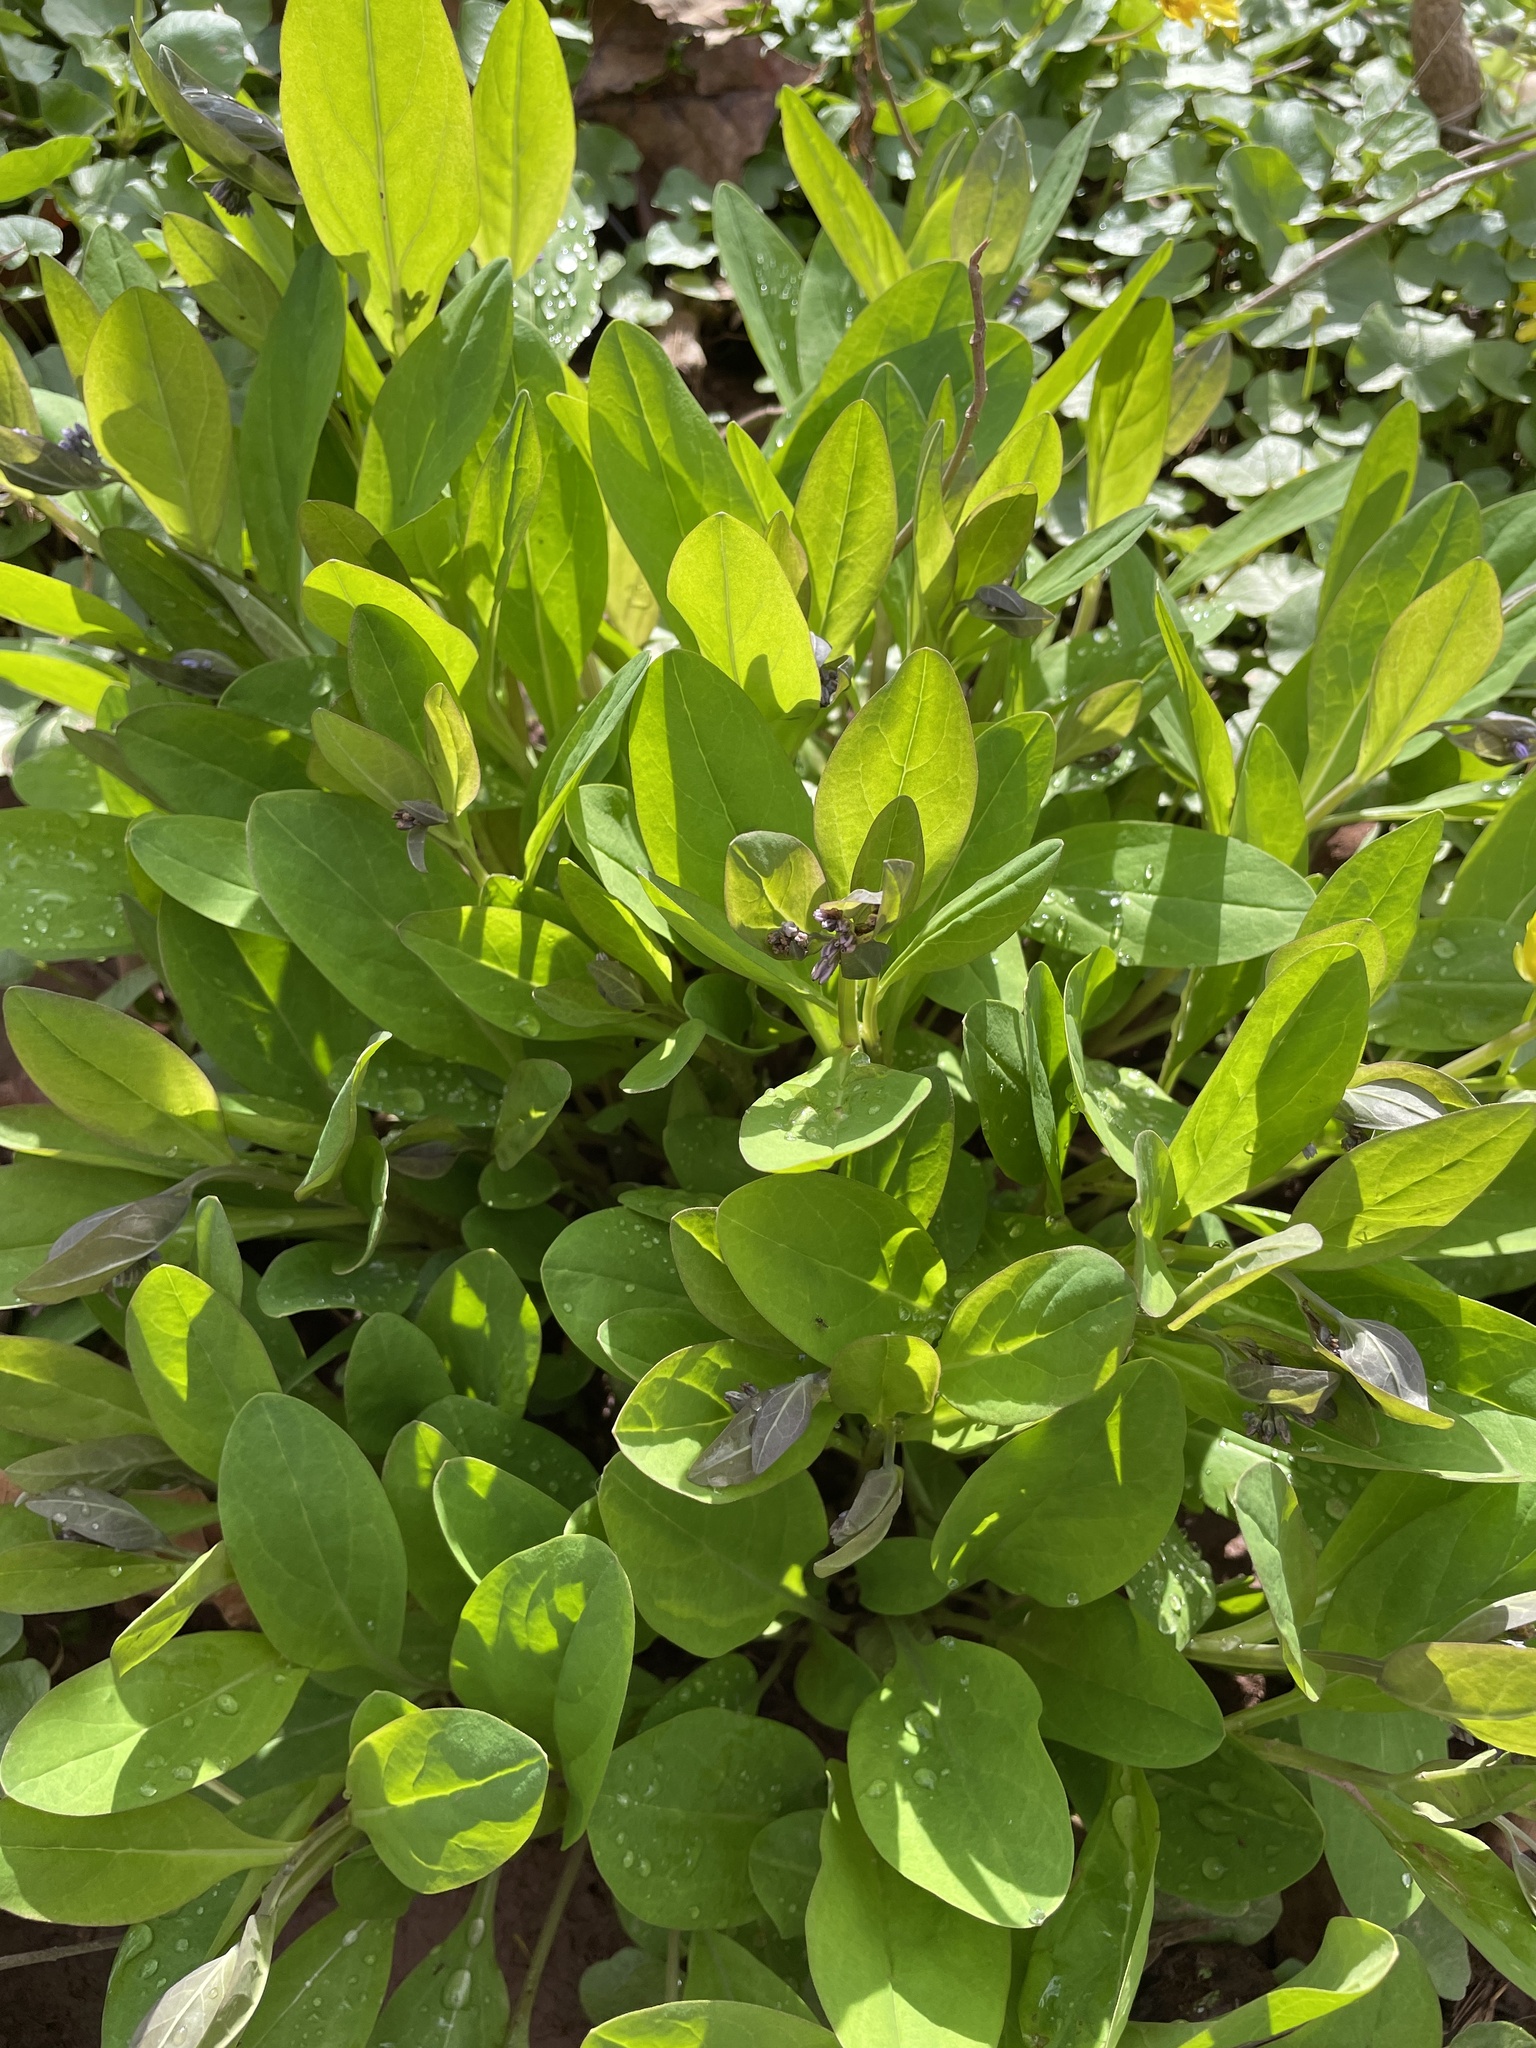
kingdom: Plantae
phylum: Tracheophyta
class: Magnoliopsida
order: Boraginales
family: Boraginaceae
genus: Mertensia
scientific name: Mertensia virginica
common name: Virginia bluebells
